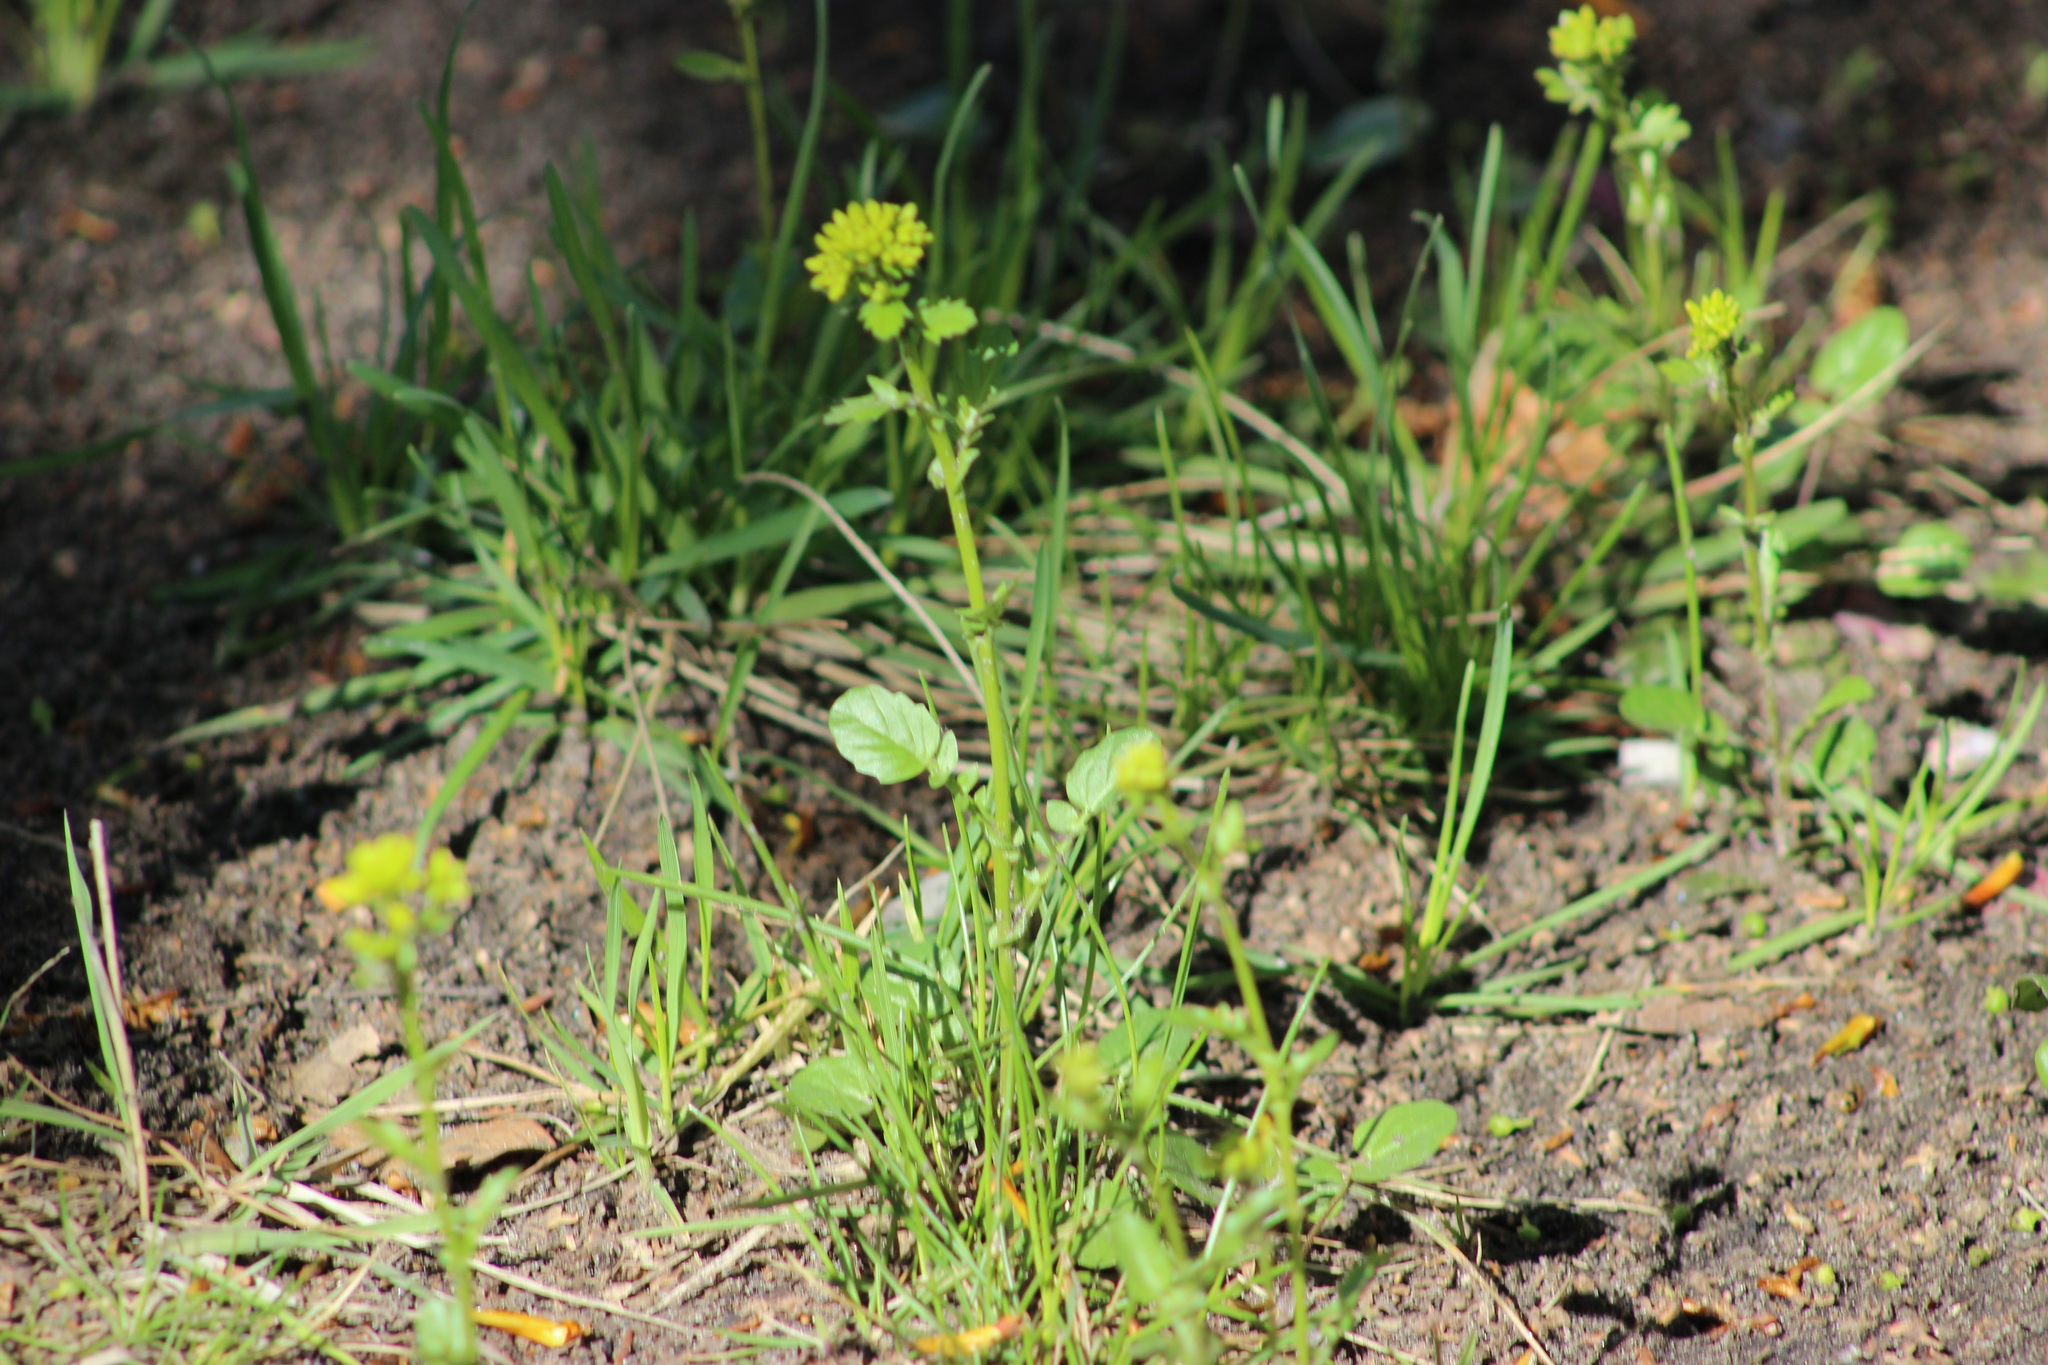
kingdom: Plantae
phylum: Tracheophyta
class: Magnoliopsida
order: Brassicales
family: Brassicaceae
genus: Barbarea
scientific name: Barbarea vulgaris
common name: Cressy-greens
